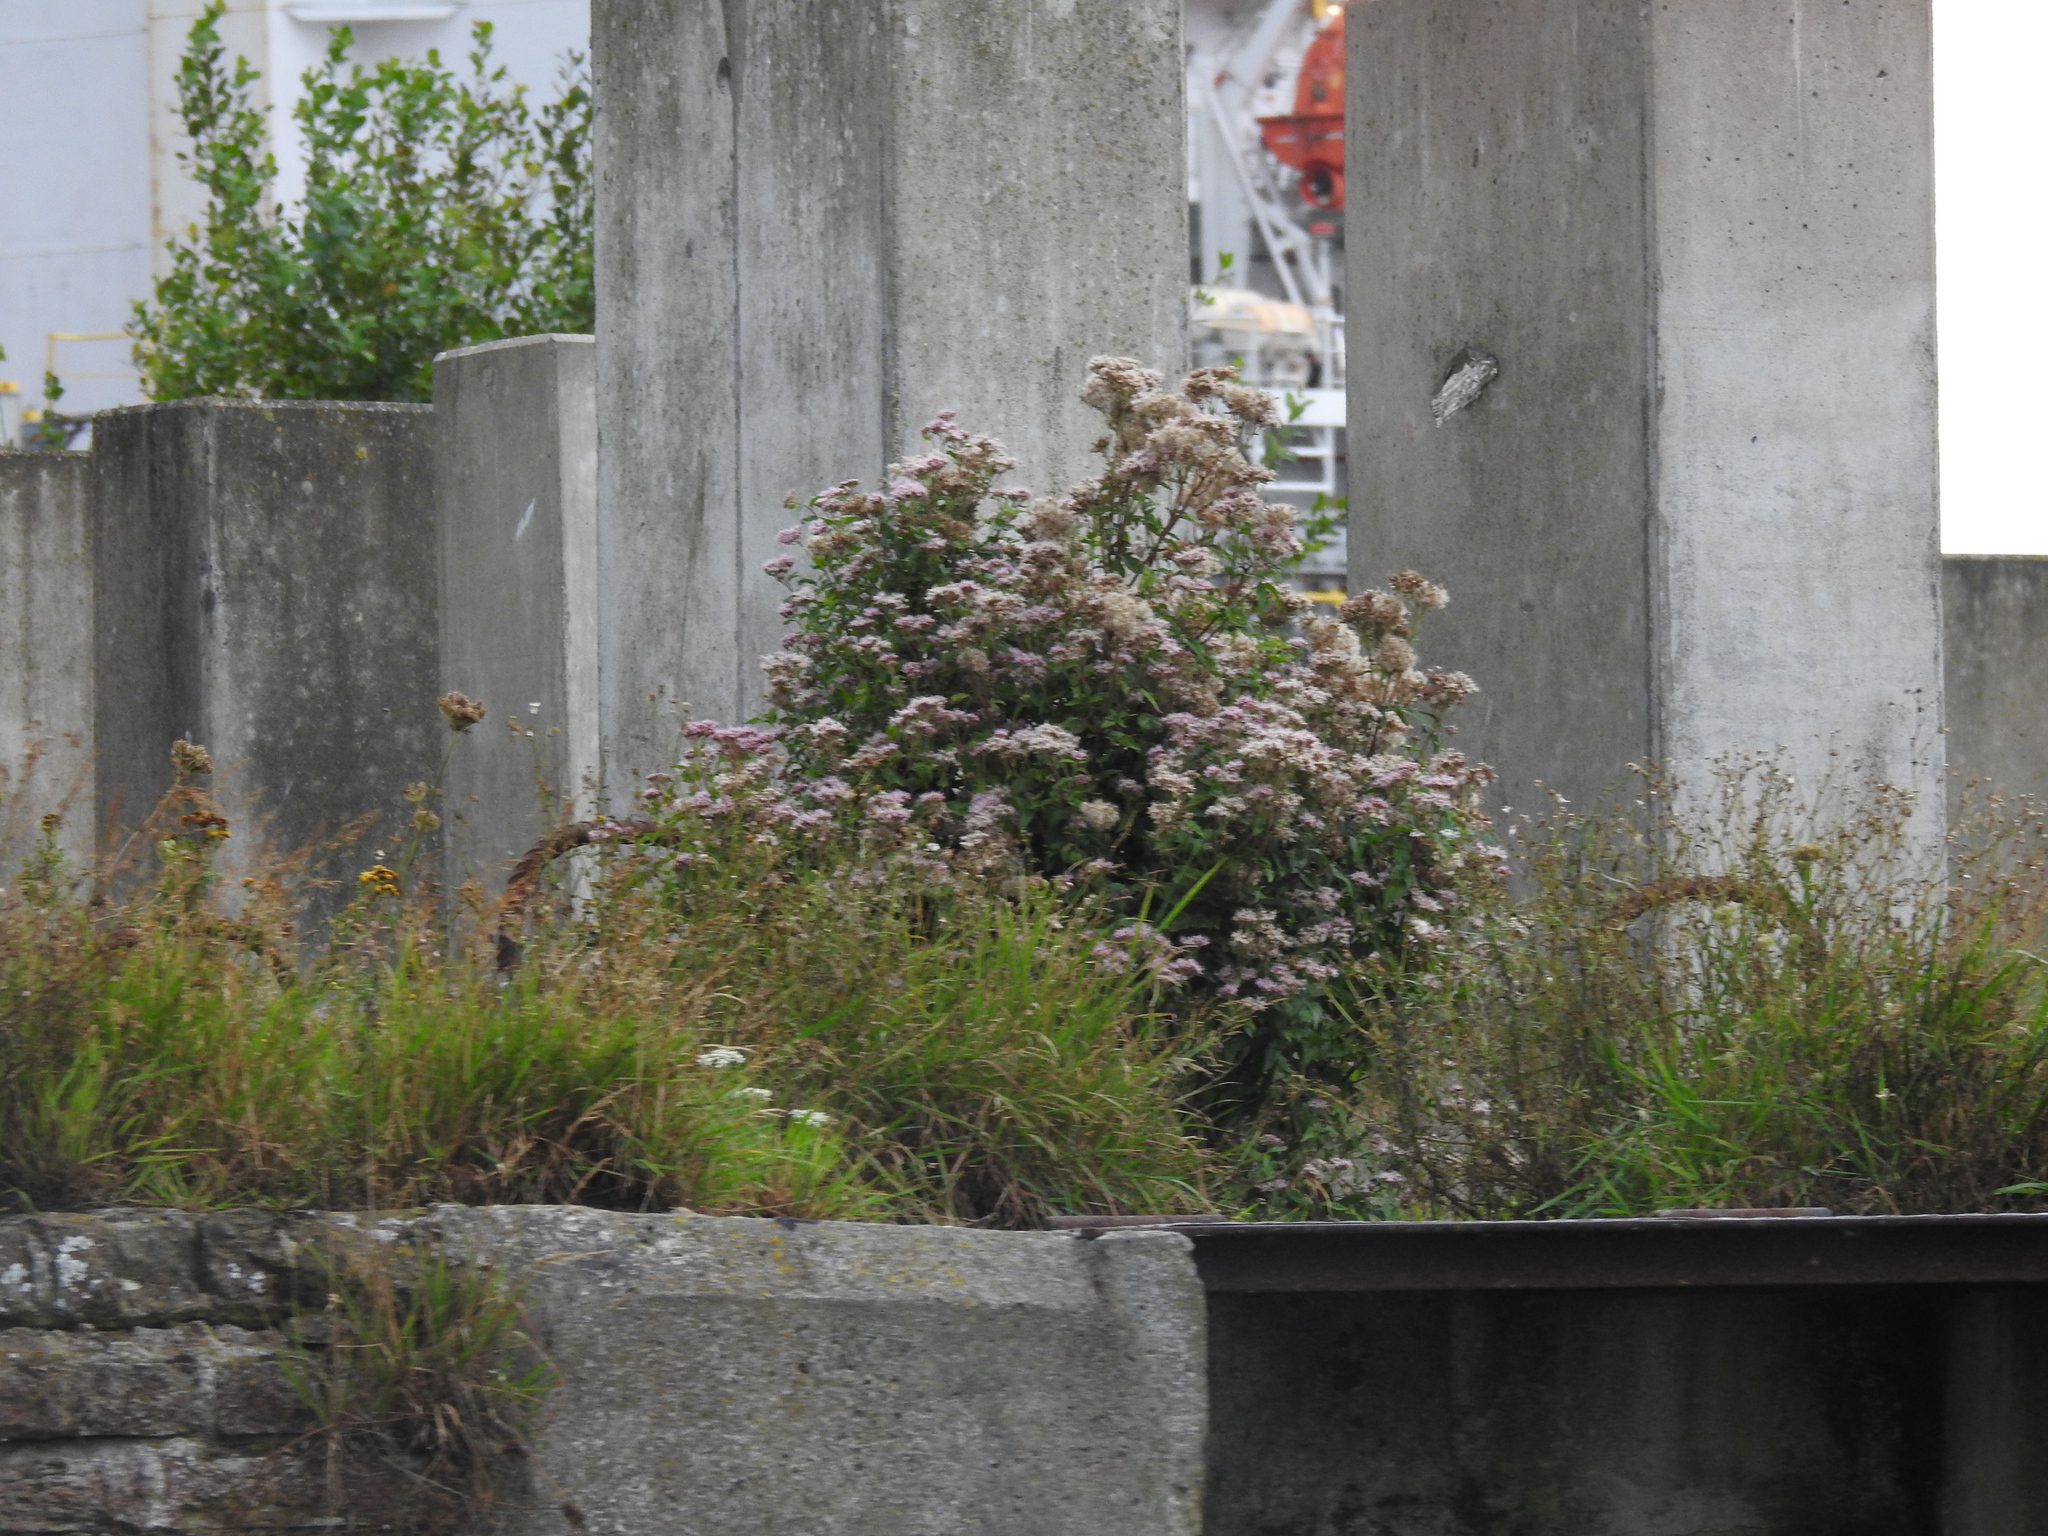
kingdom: Plantae
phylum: Tracheophyta
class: Magnoliopsida
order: Asterales
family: Asteraceae
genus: Eupatorium
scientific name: Eupatorium cannabinum
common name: Hemp-agrimony
